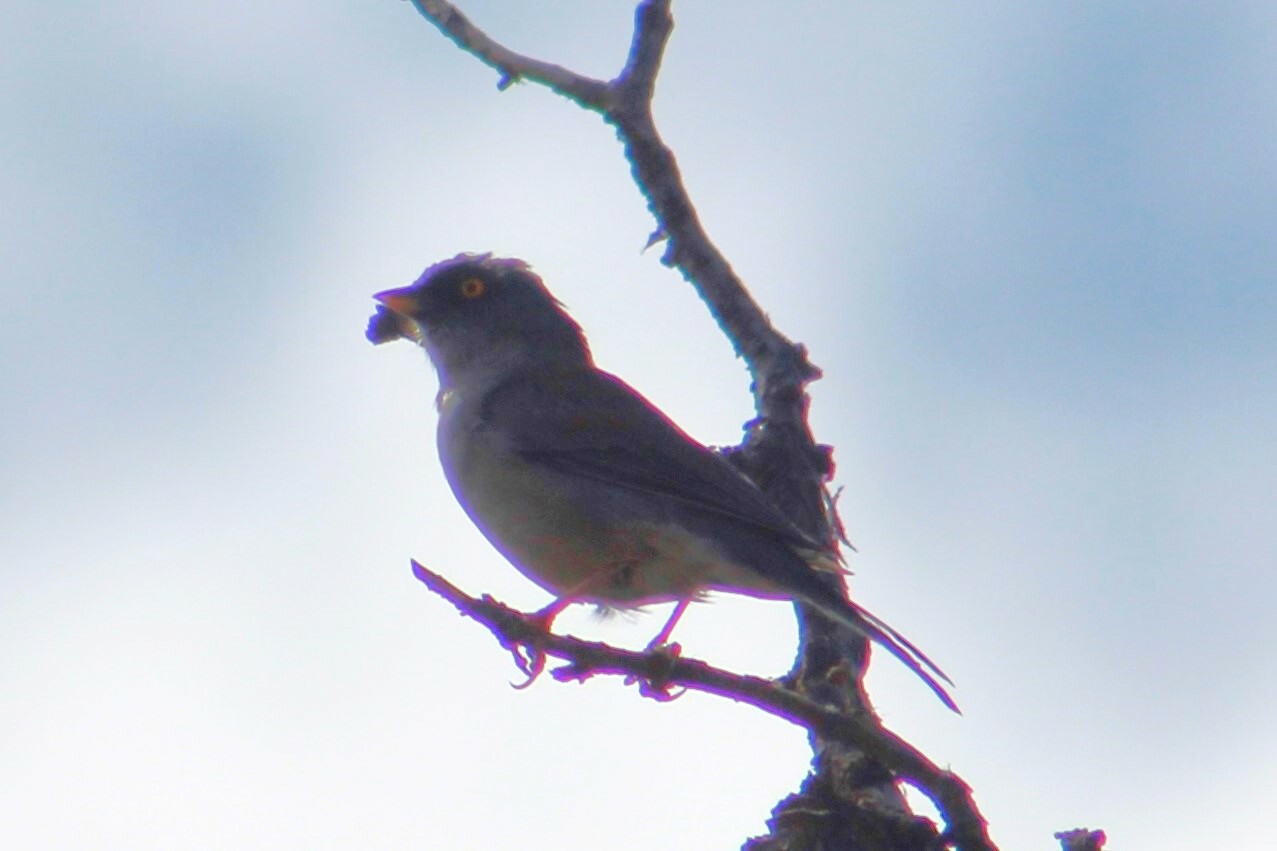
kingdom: Animalia
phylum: Chordata
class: Aves
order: Passeriformes
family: Passerellidae
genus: Junco
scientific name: Junco phaeonotus
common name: Yellow-eyed junco
